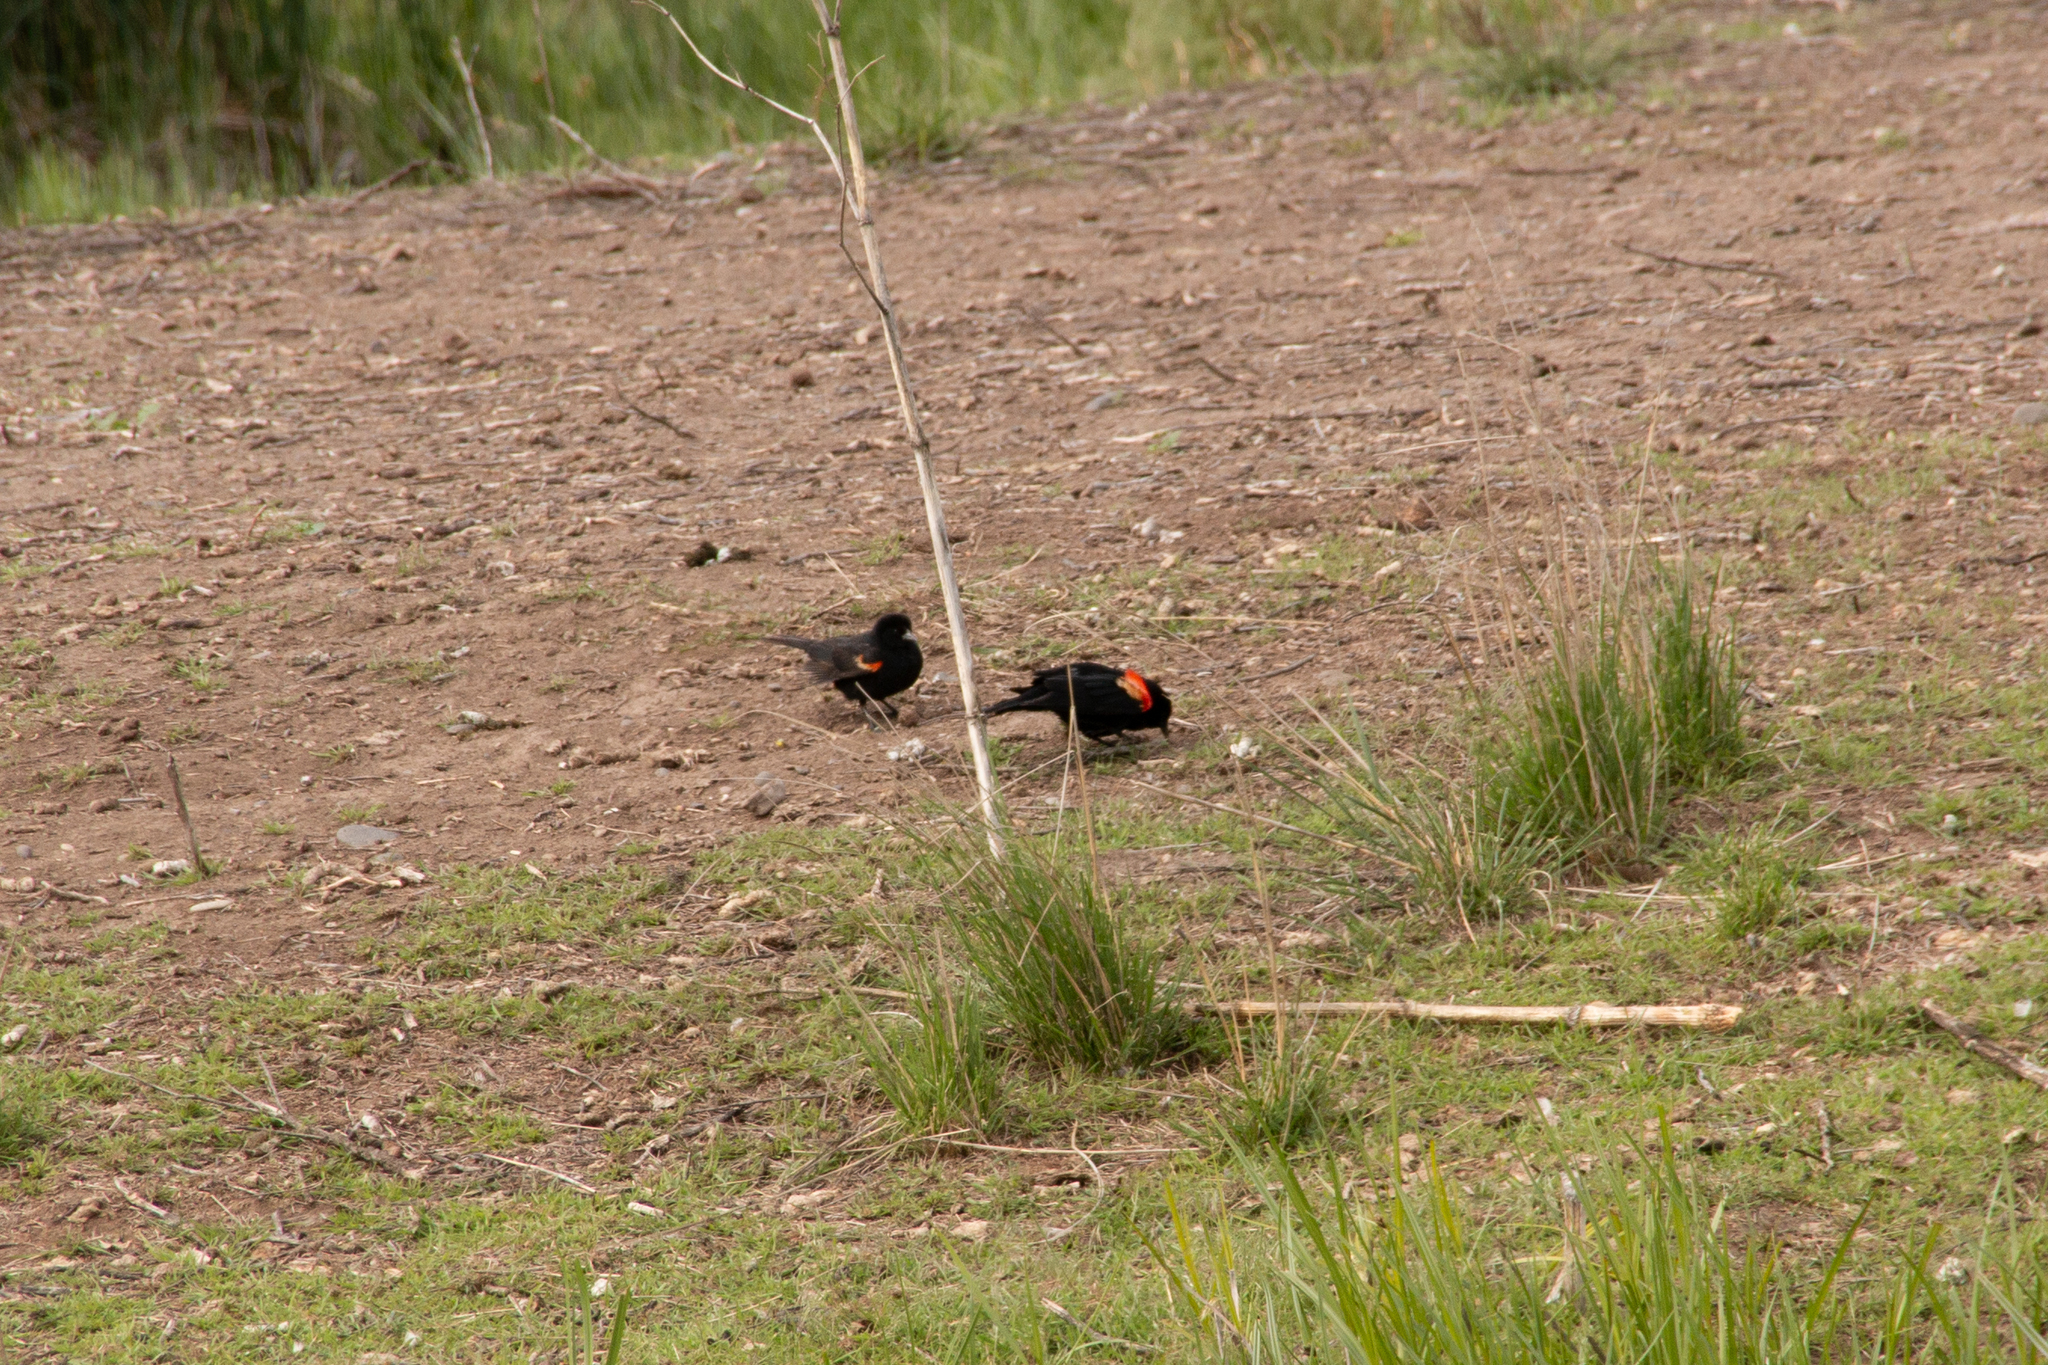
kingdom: Animalia
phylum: Chordata
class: Aves
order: Passeriformes
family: Icteridae
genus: Agelaius
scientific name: Agelaius phoeniceus
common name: Red-winged blackbird
